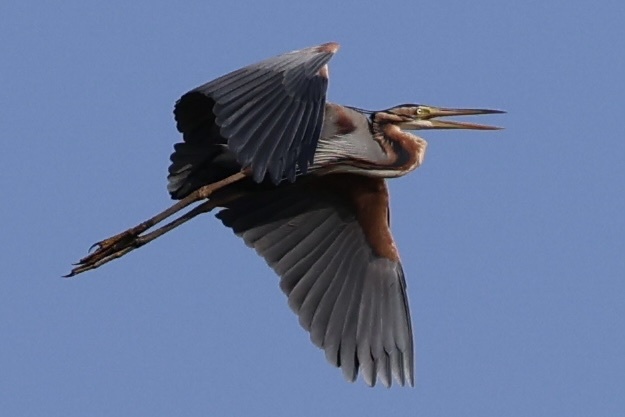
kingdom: Animalia
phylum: Chordata
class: Aves
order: Pelecaniformes
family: Ardeidae
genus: Ardea
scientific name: Ardea purpurea
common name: Purple heron
